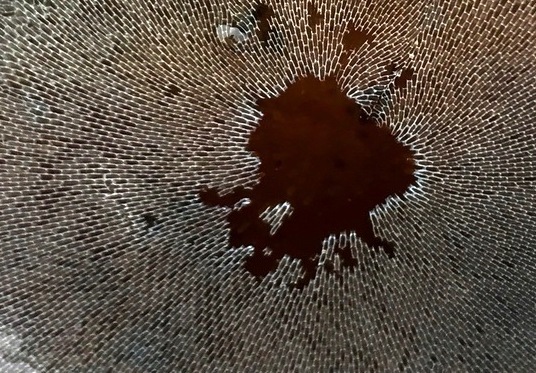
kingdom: Animalia
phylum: Bryozoa
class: Gymnolaemata
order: Cheilostomatida
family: Membraniporidae
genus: Membranipora
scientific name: Membranipora membranacea
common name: Sea mat
